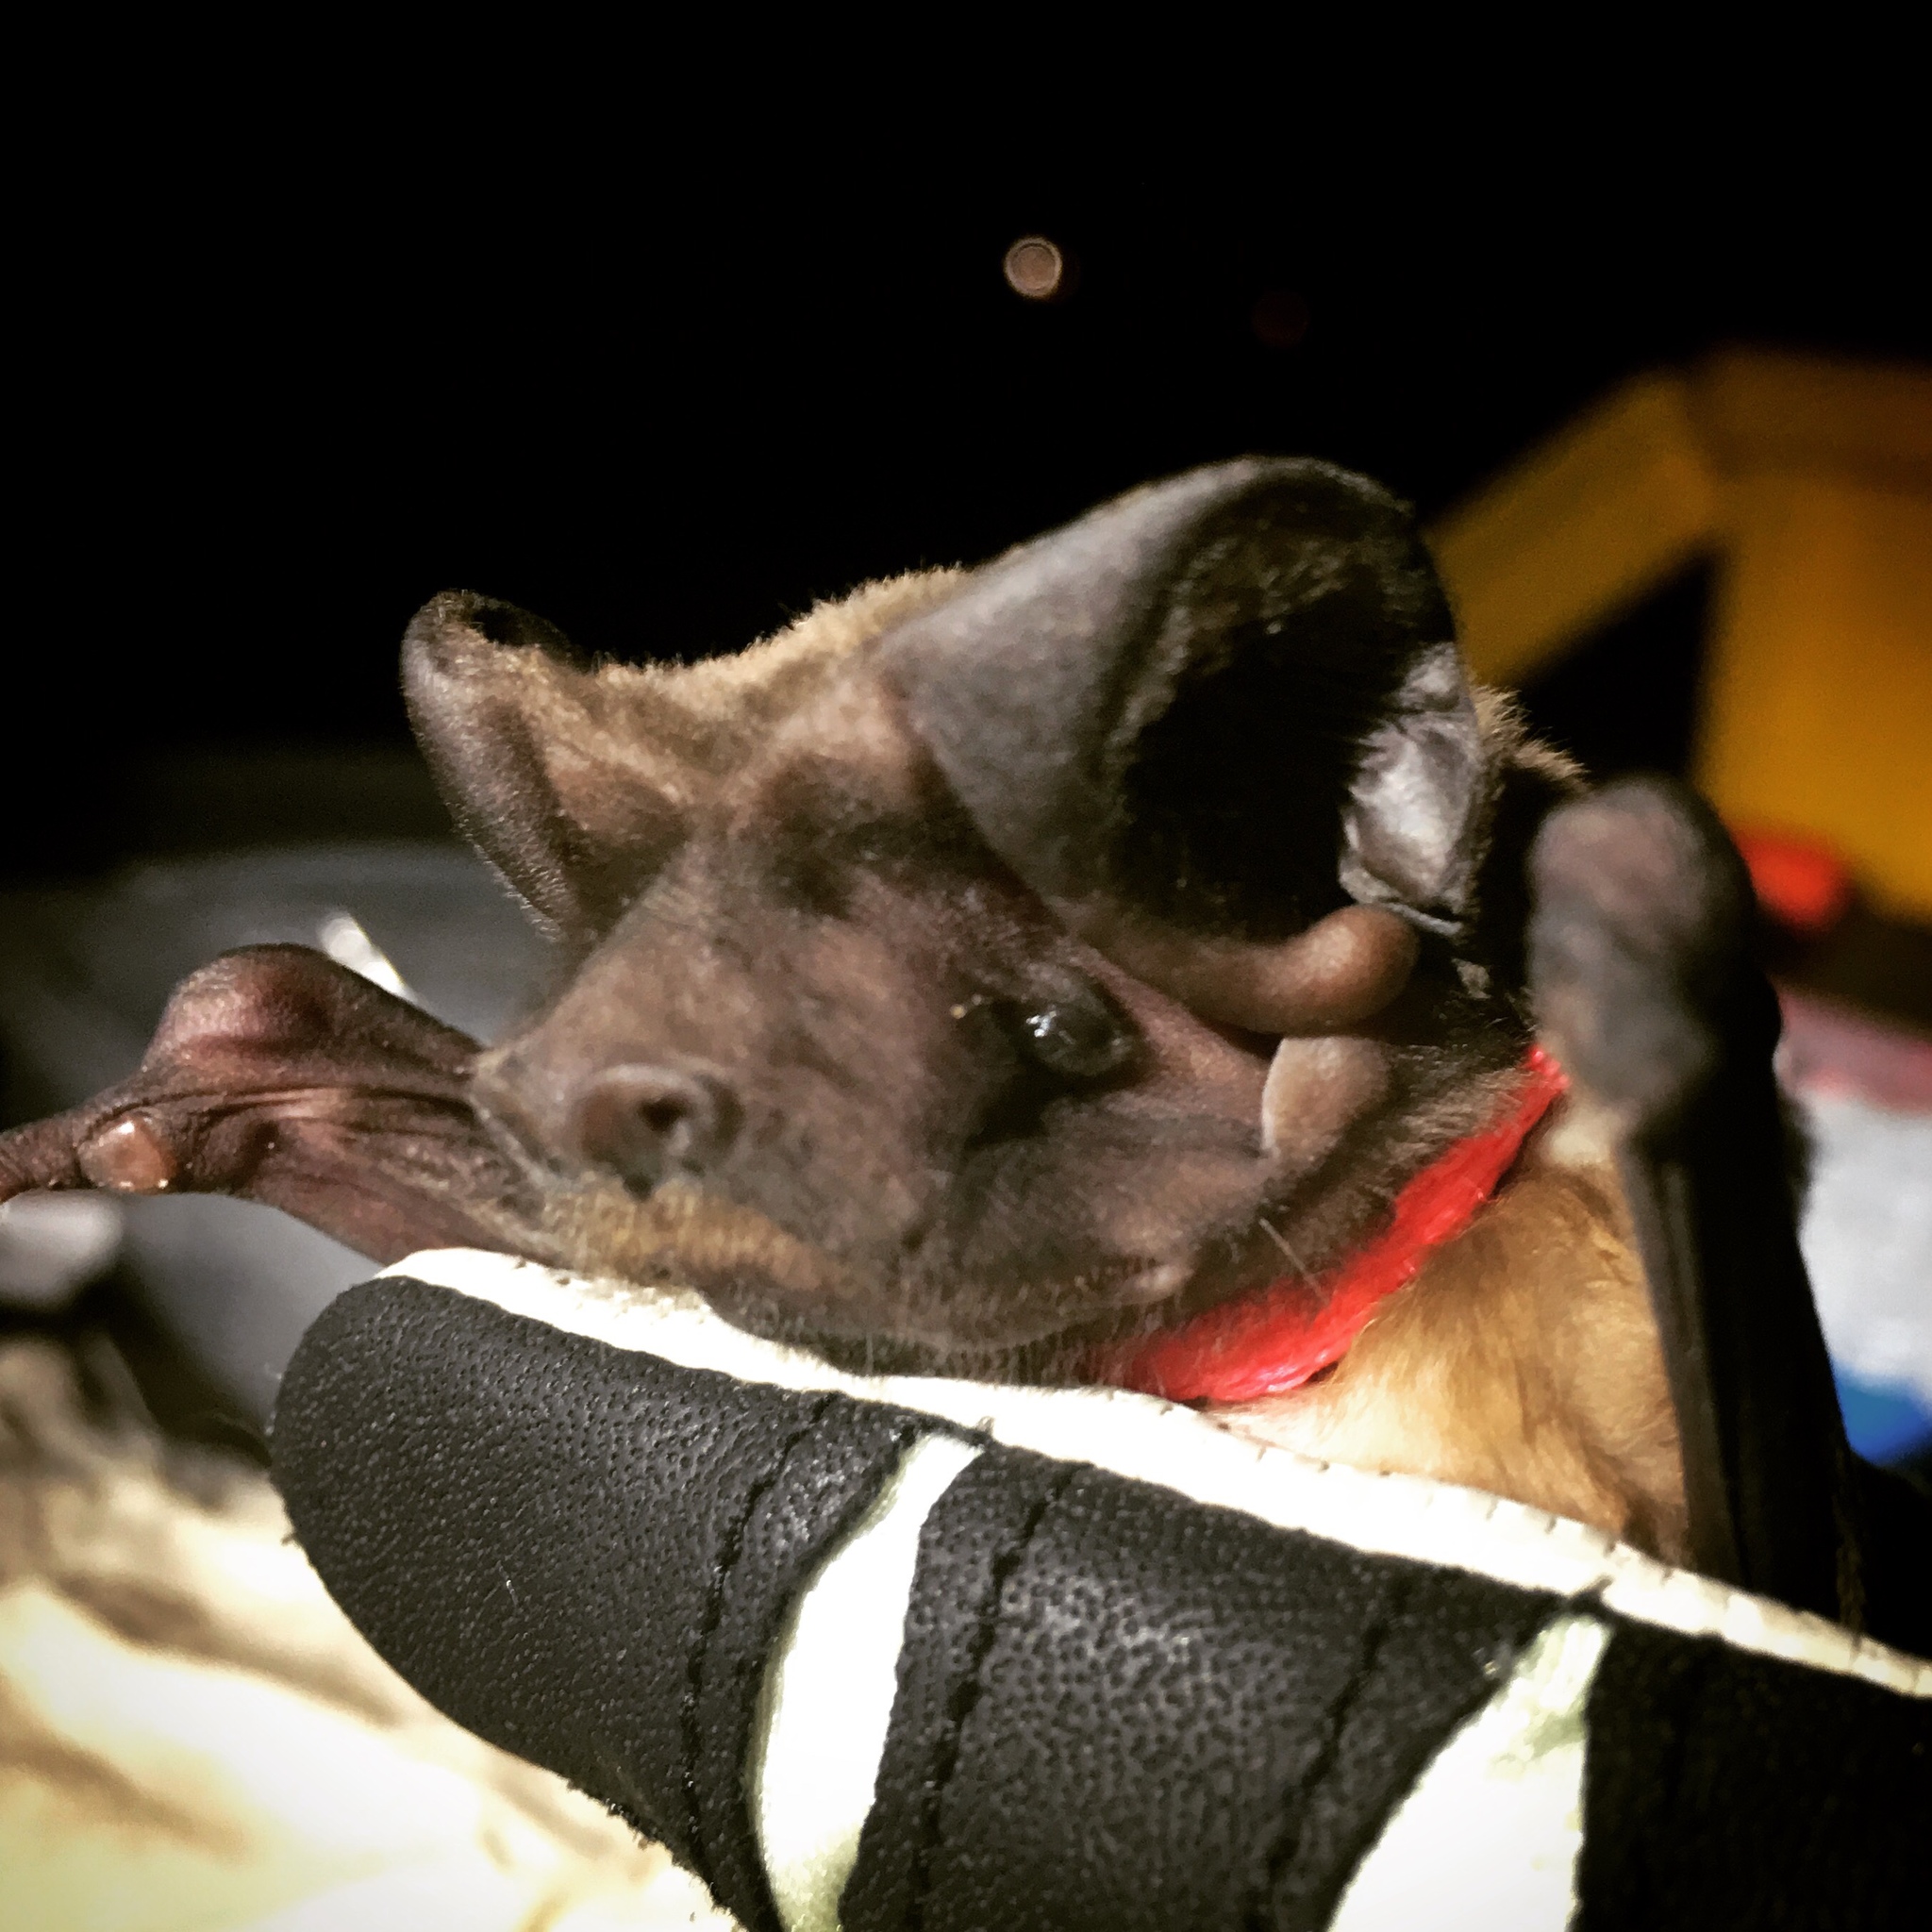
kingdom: Animalia
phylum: Chordata
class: Mammalia
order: Chiroptera
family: Molossidae
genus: Eumops
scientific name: Eumops floridanus
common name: Florida bonneted bat
